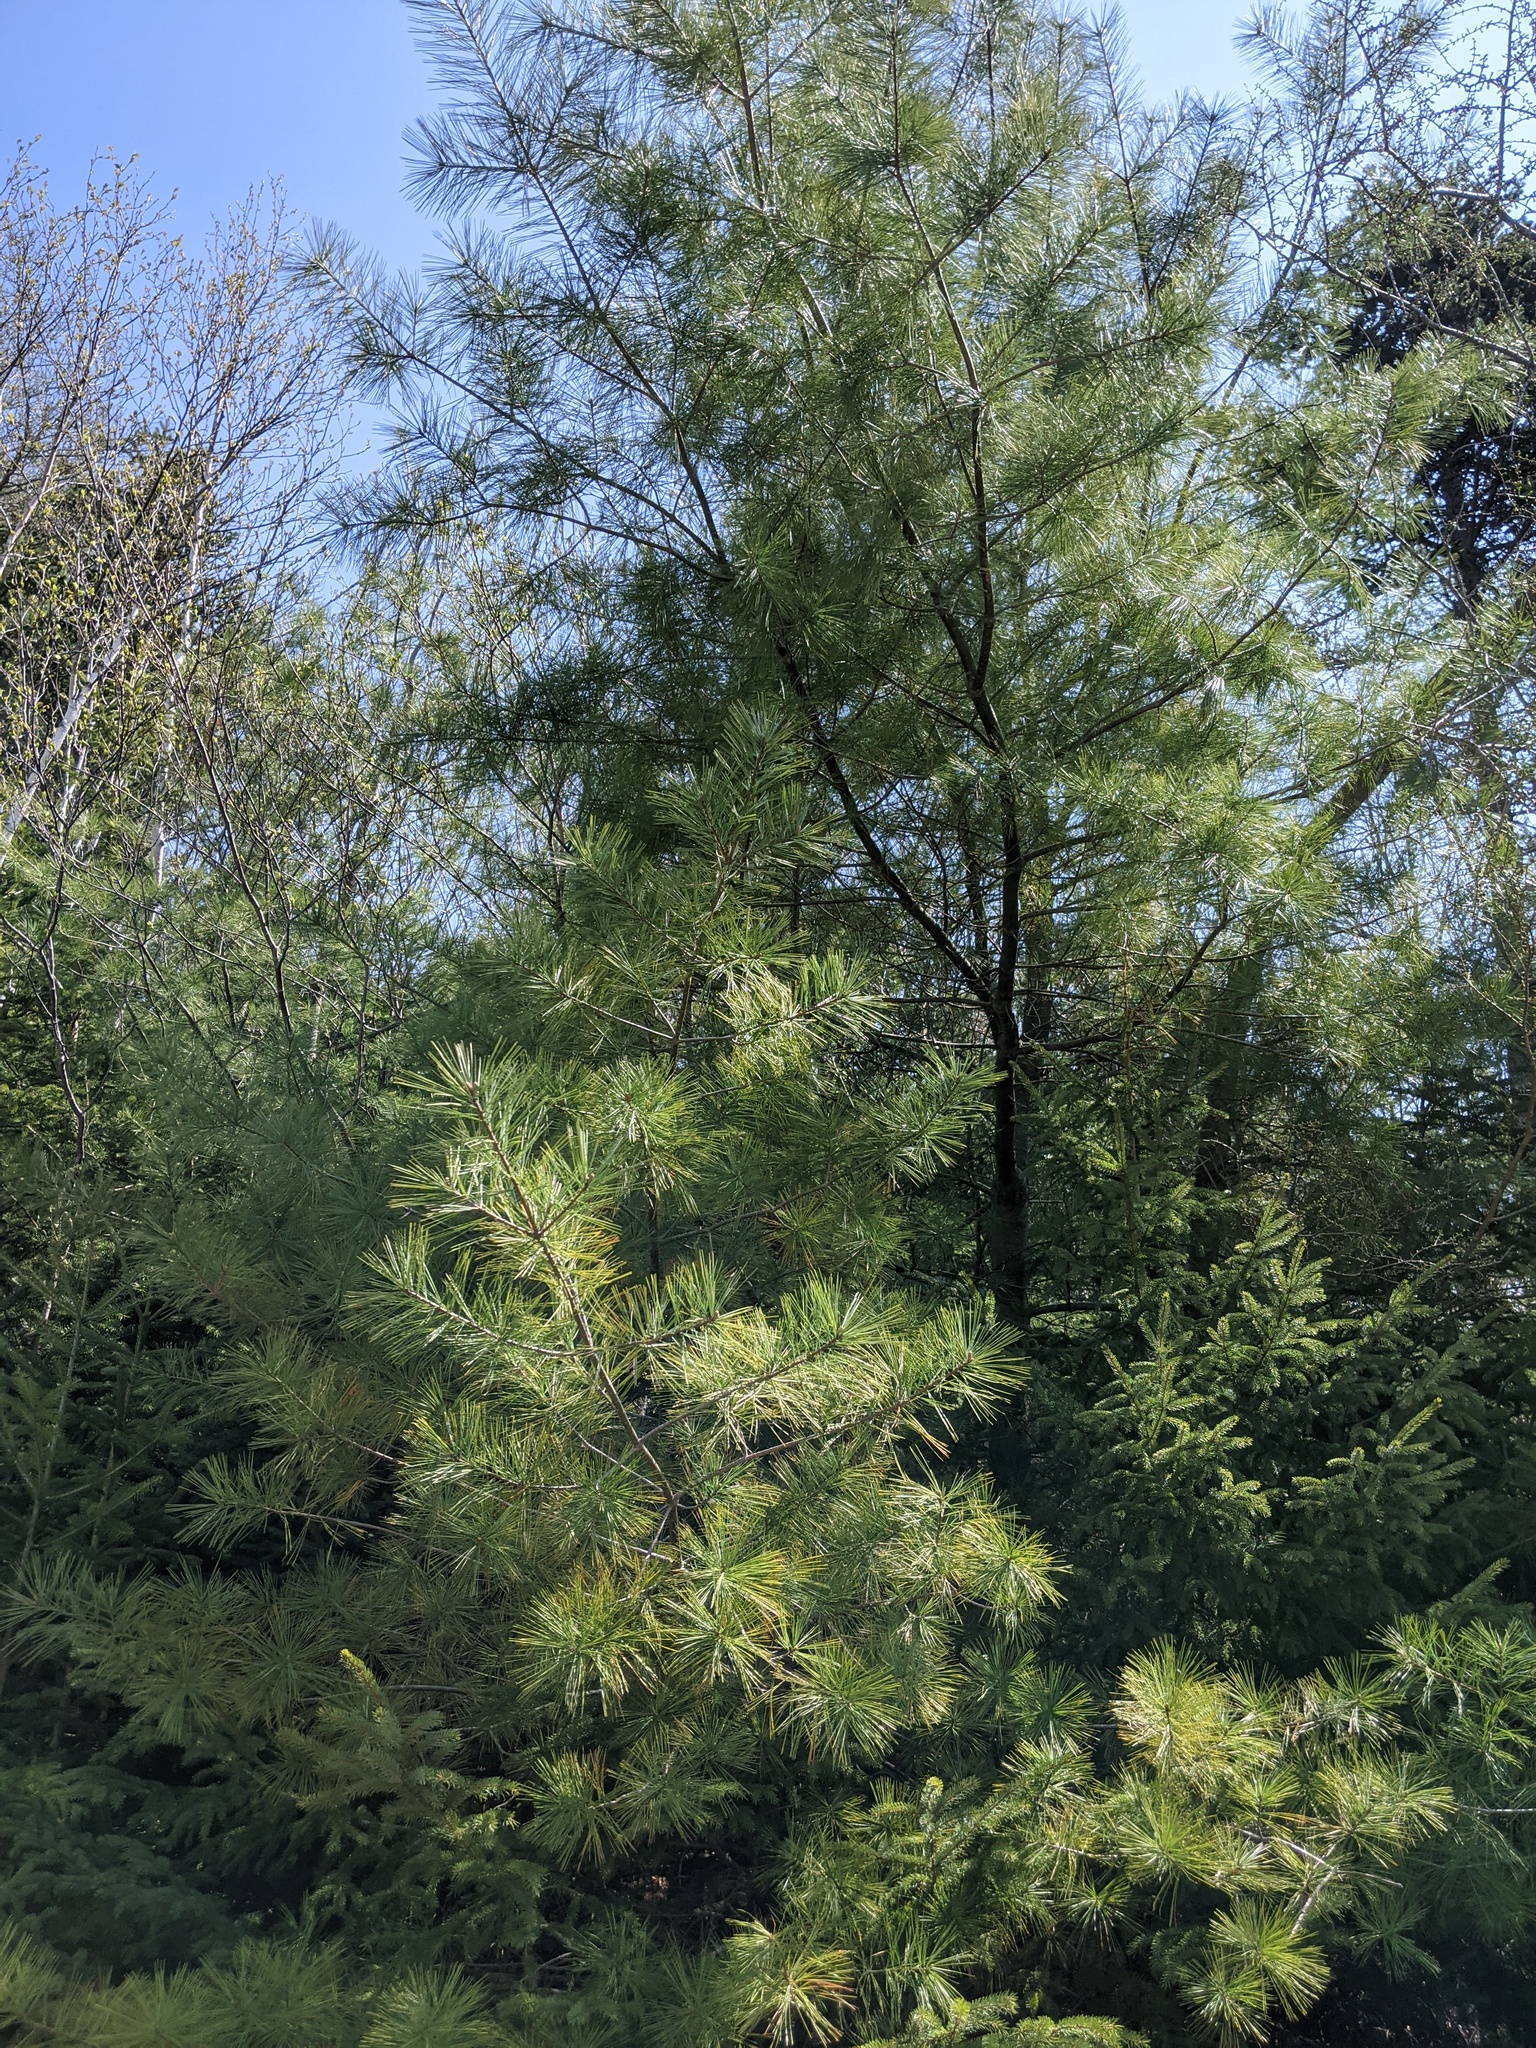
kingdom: Plantae
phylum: Tracheophyta
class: Pinopsida
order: Pinales
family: Pinaceae
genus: Pinus
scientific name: Pinus strobus
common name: Weymouth pine
